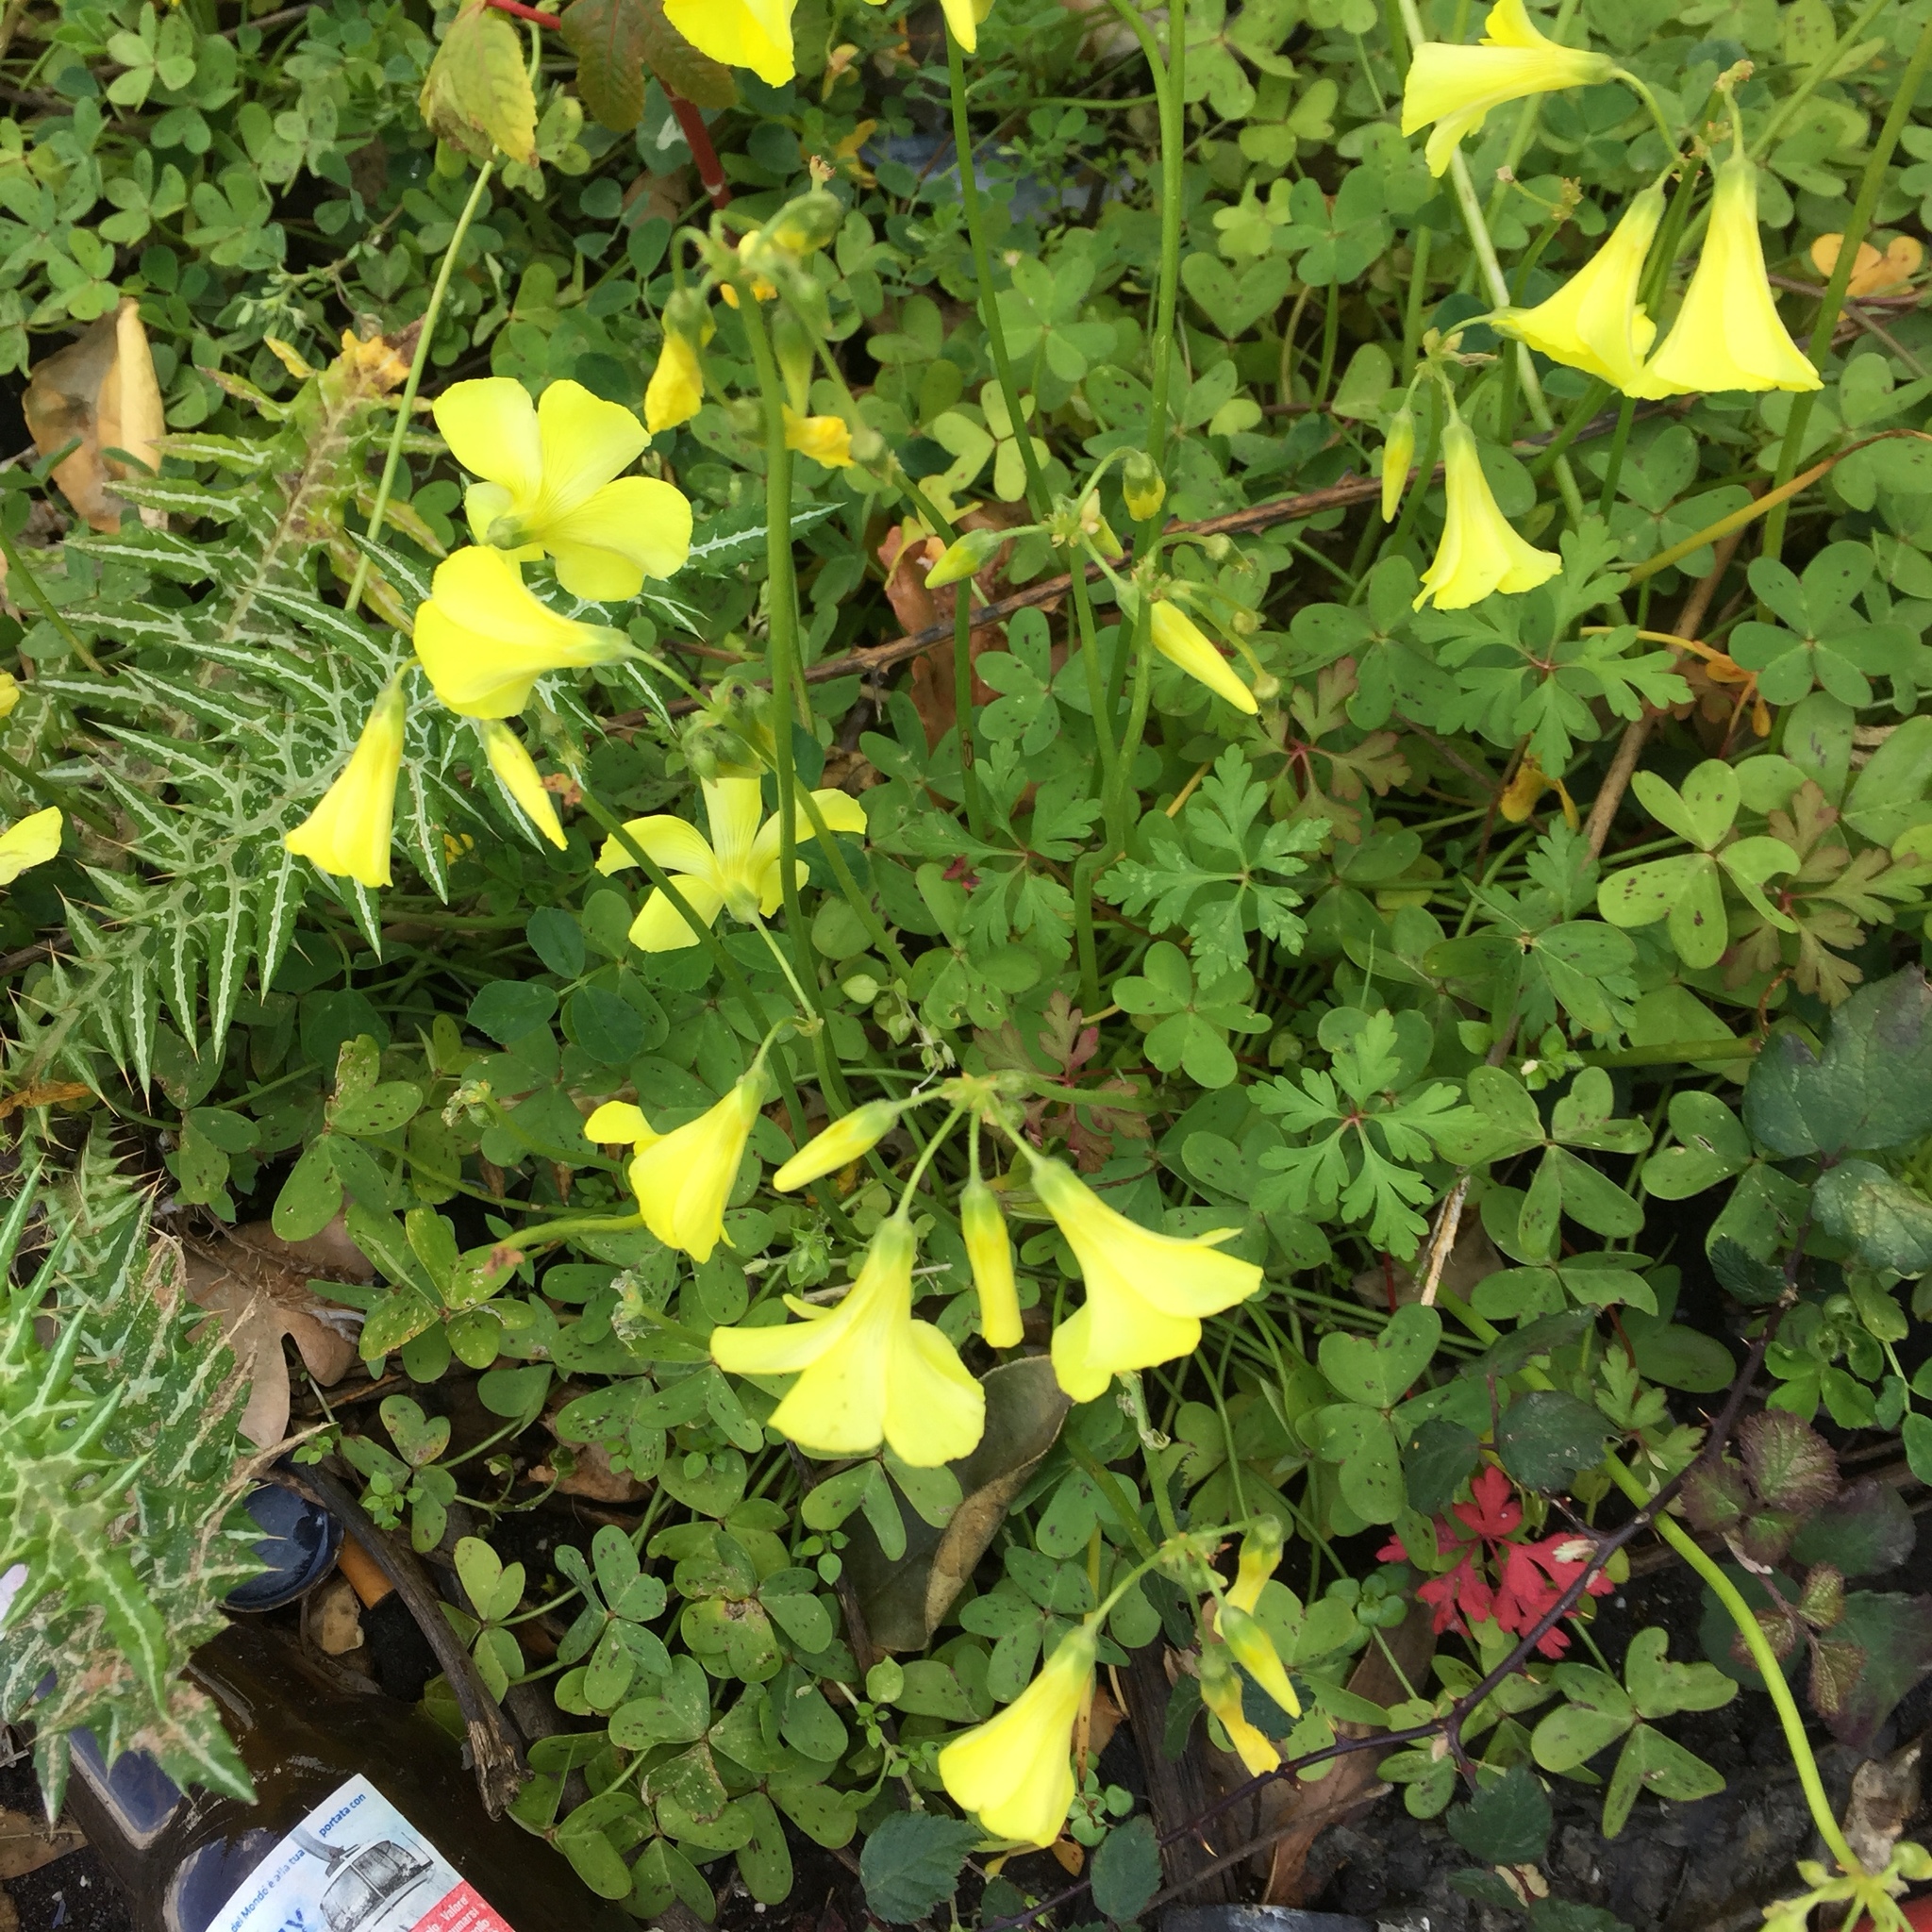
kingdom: Plantae
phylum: Tracheophyta
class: Magnoliopsida
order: Oxalidales
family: Oxalidaceae
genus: Oxalis
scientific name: Oxalis pes-caprae
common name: Bermuda-buttercup
